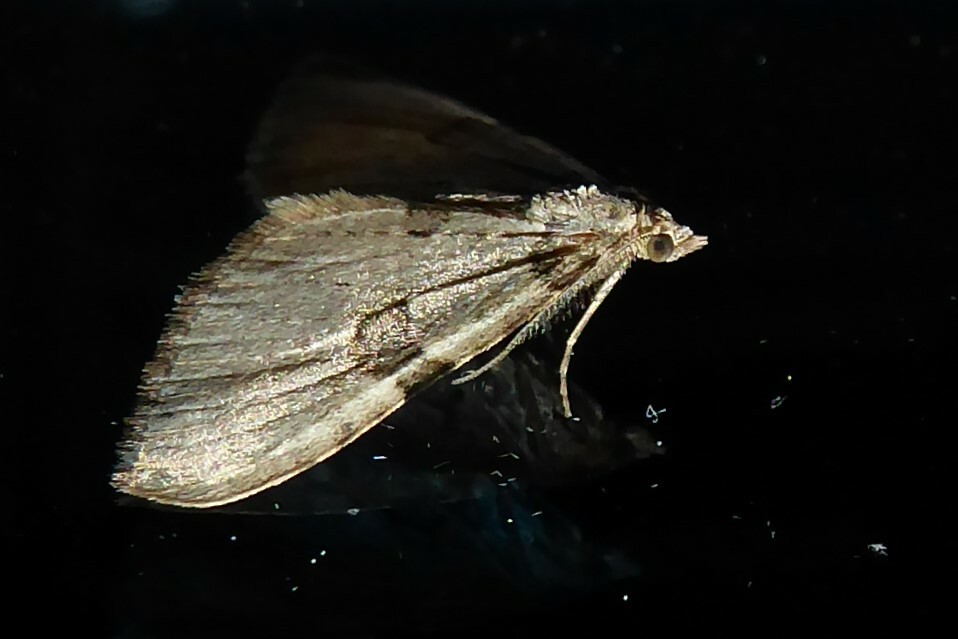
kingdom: Animalia
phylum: Arthropoda
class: Insecta
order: Lepidoptera
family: Geometridae
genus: Epyaxa
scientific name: Epyaxa rosearia
